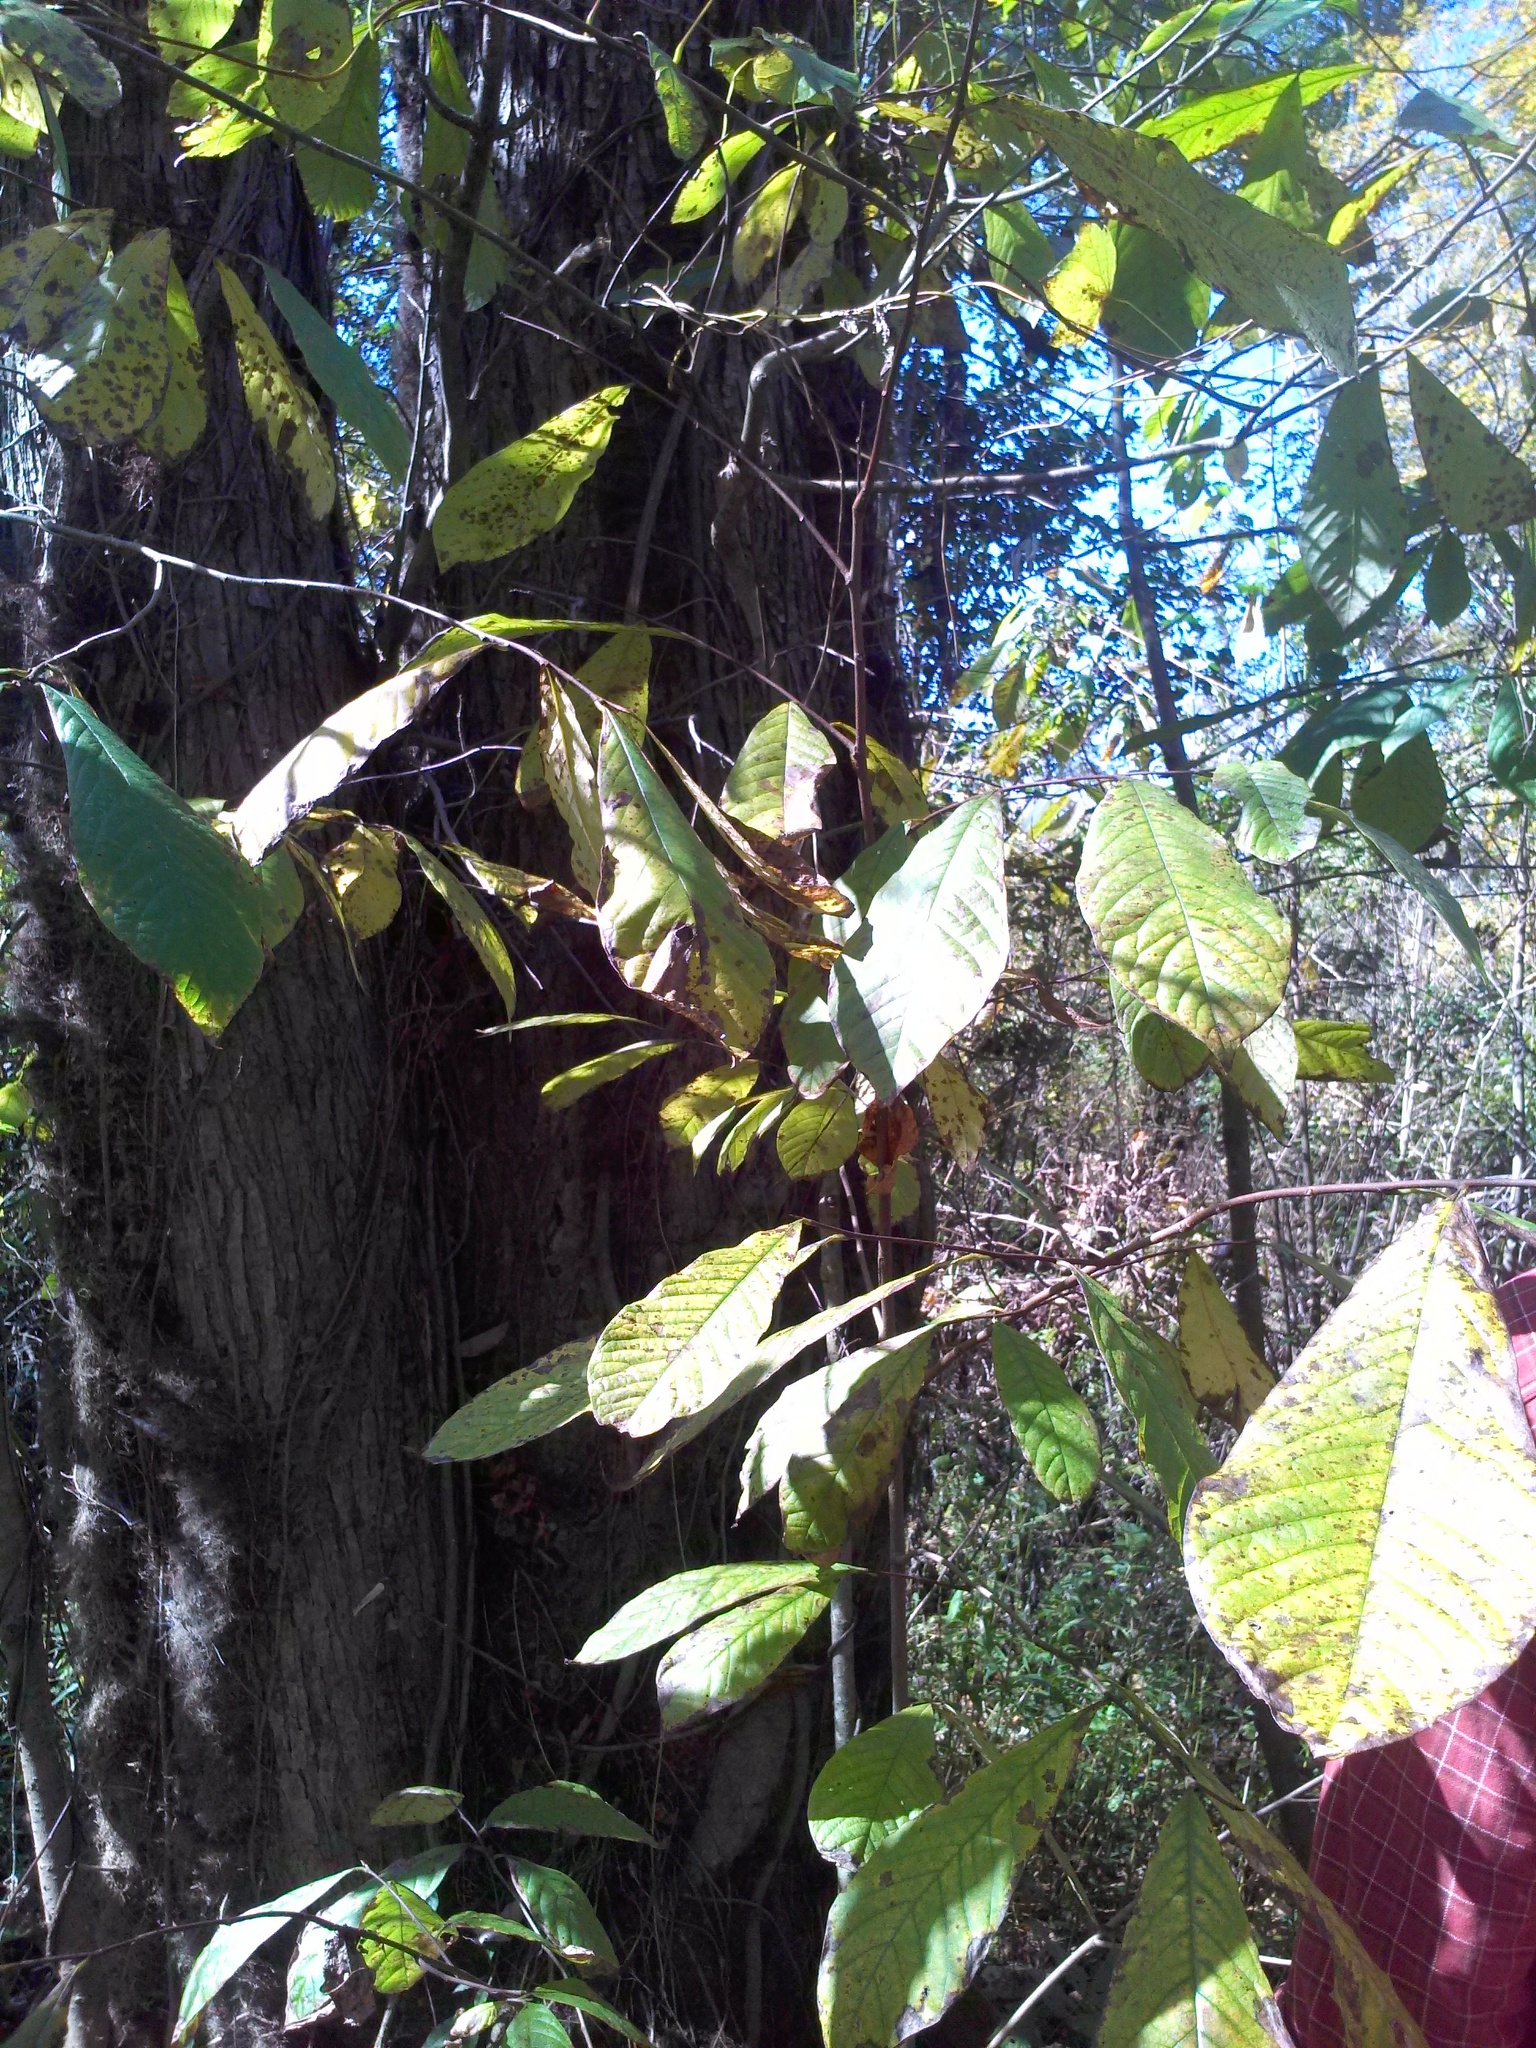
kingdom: Plantae
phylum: Tracheophyta
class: Magnoliopsida
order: Magnoliales
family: Annonaceae
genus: Asimina
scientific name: Asimina triloba
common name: Dog-banana
